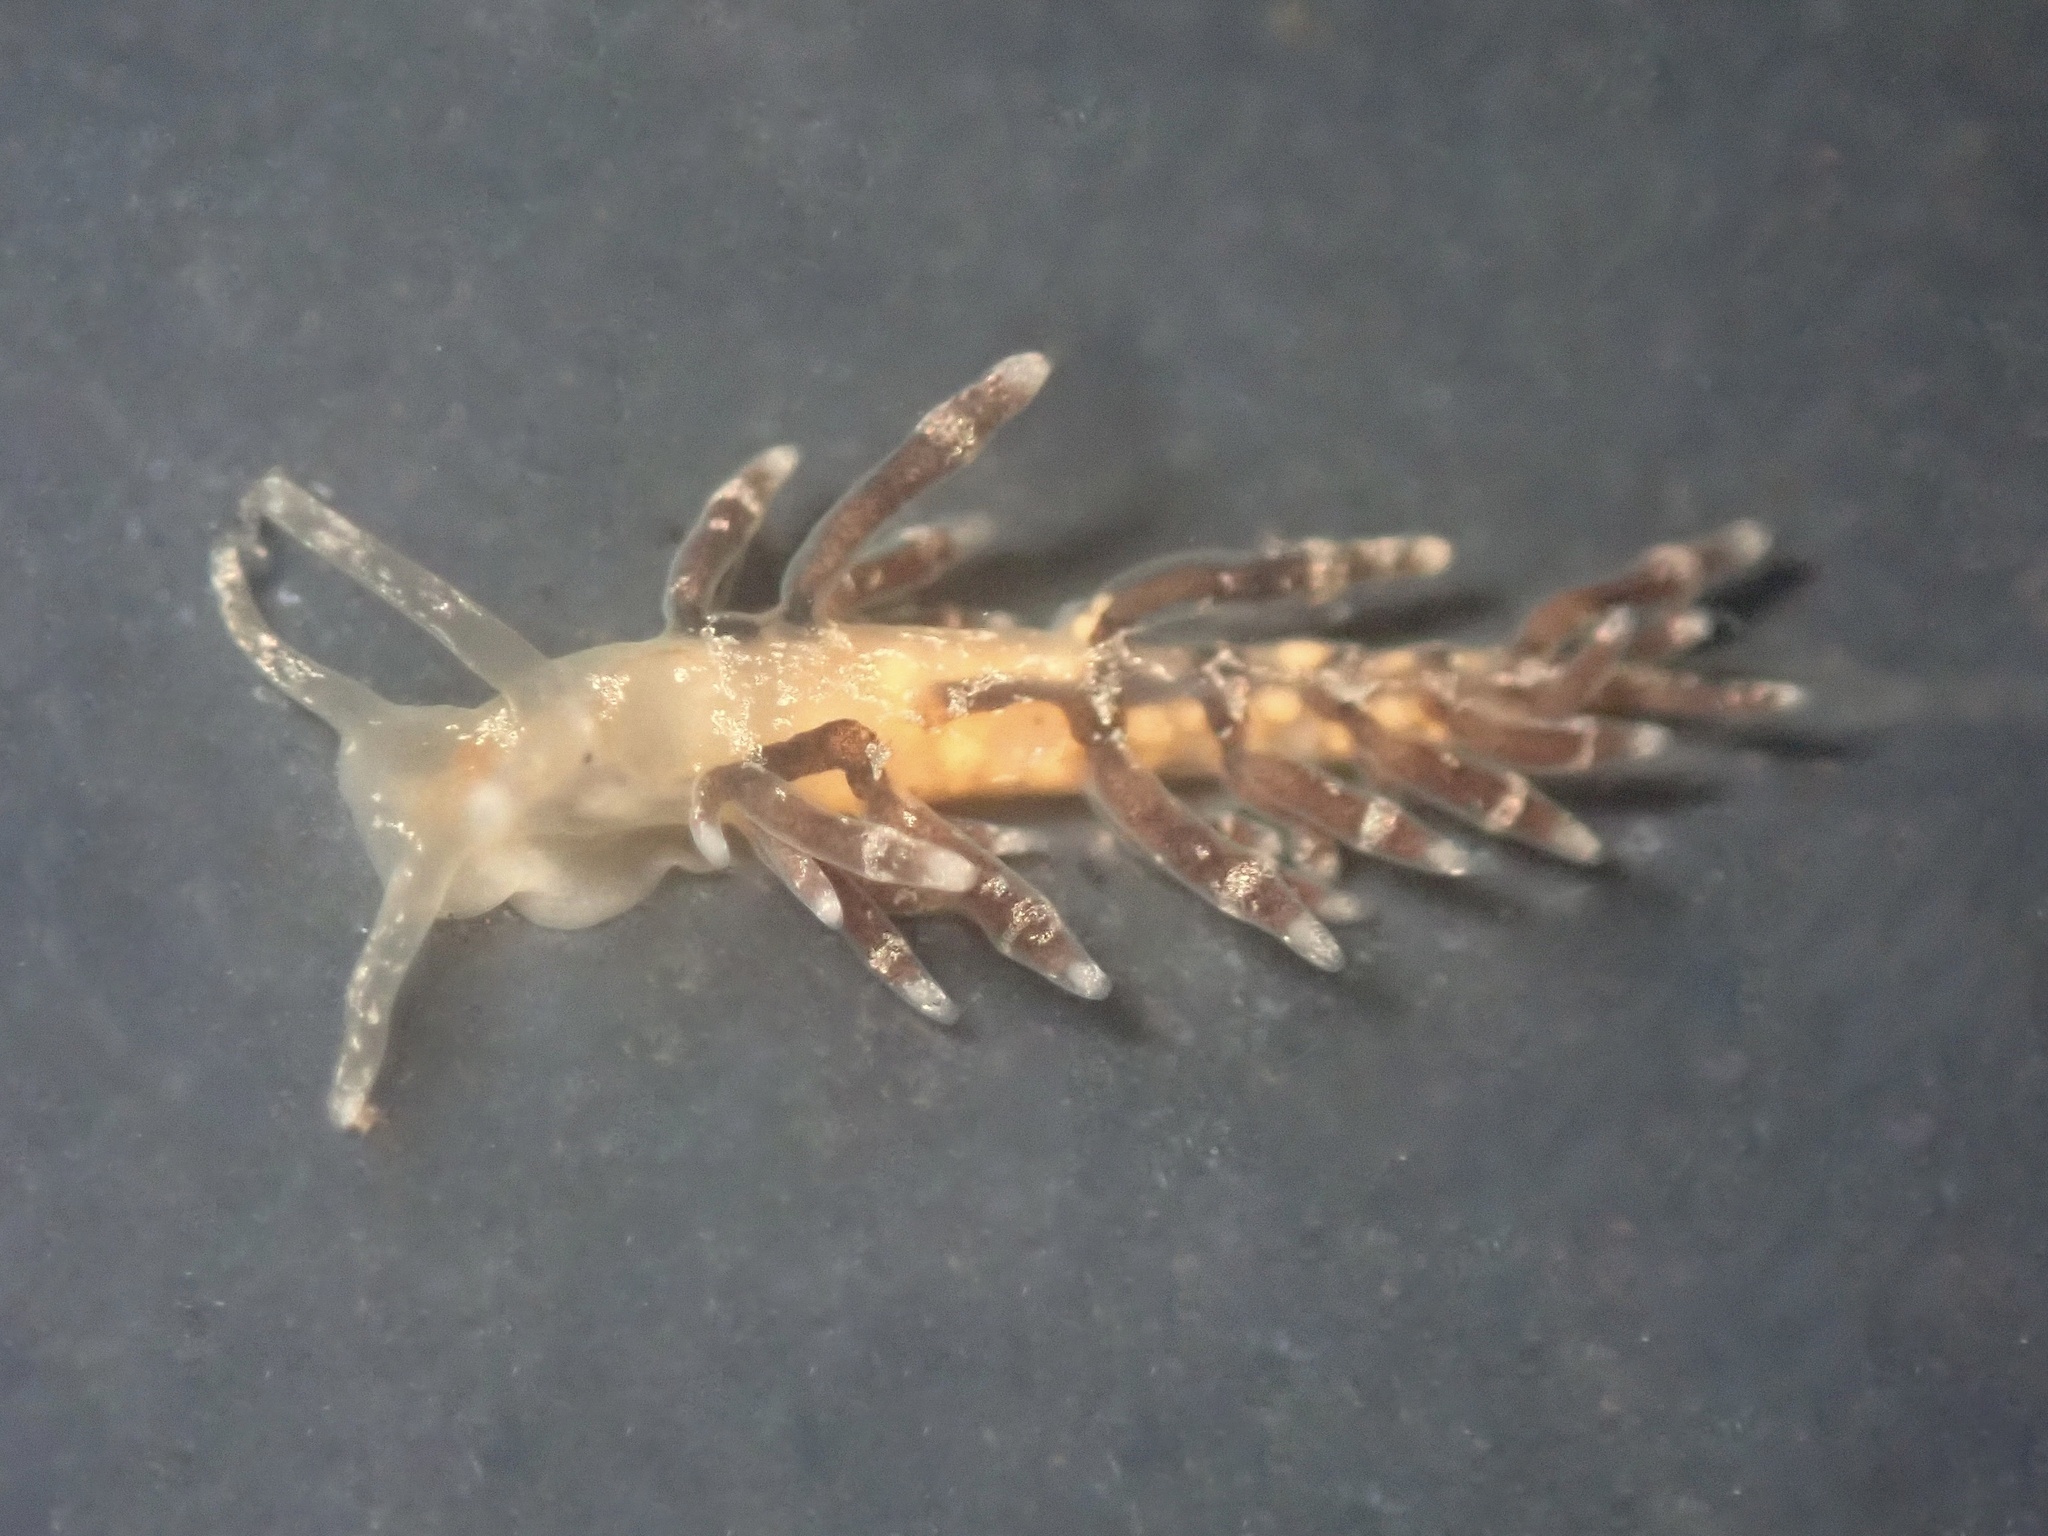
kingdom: Animalia
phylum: Mollusca
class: Gastropoda
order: Nudibranchia
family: Cuthonidae
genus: Cuthona
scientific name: Cuthona perca
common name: Lake merritt aeolis
